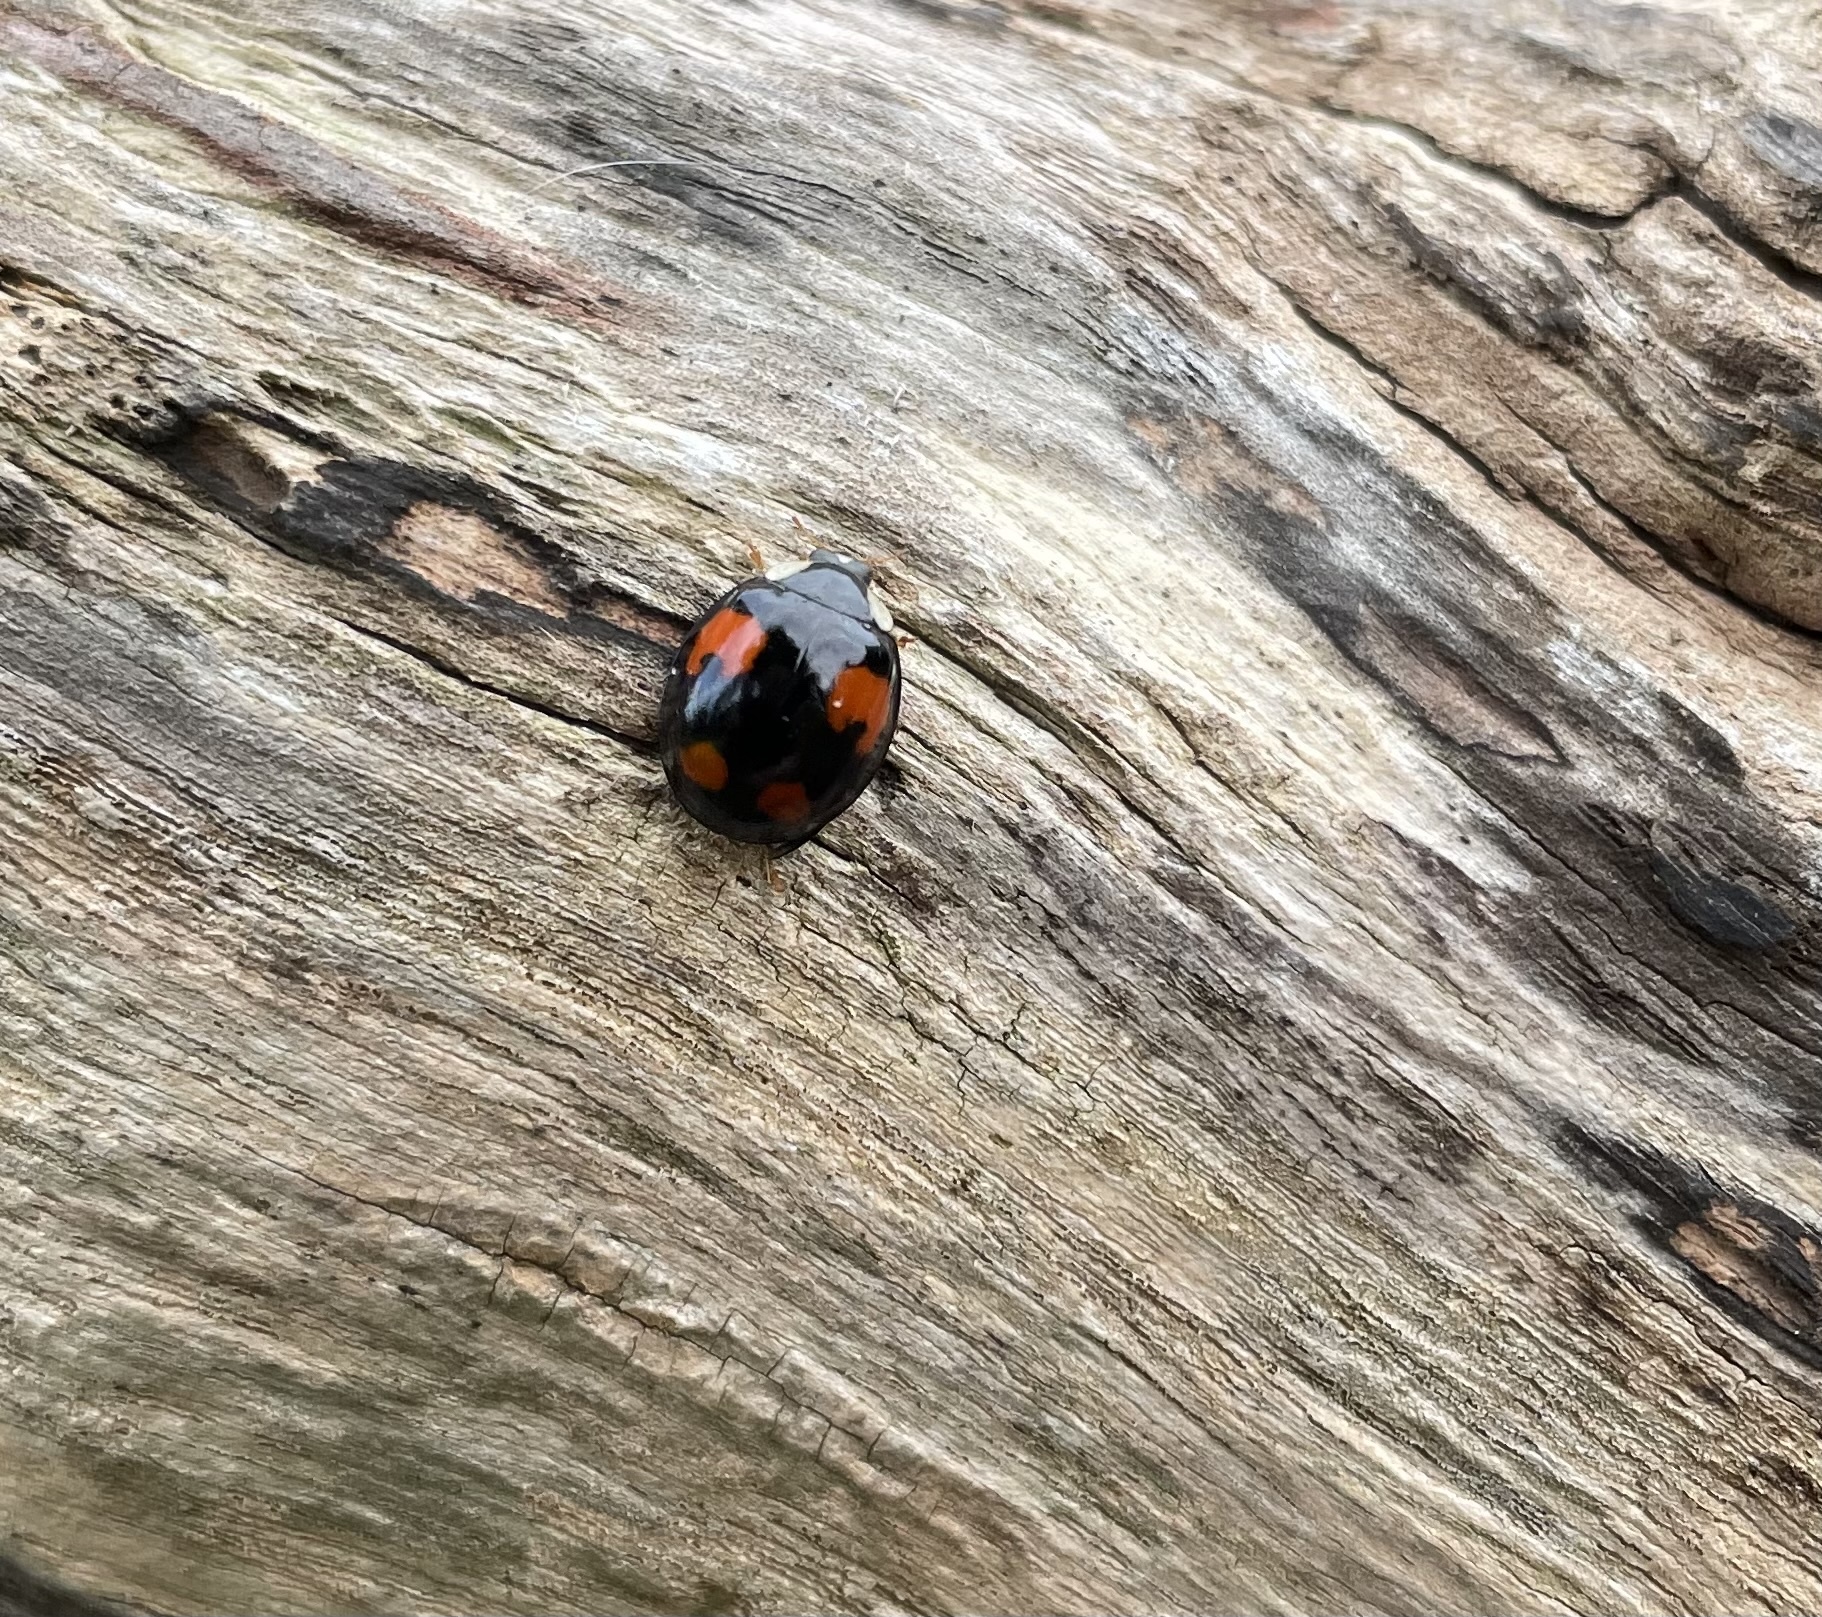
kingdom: Animalia
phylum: Arthropoda
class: Insecta
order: Coleoptera
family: Coccinellidae
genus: Harmonia
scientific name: Harmonia axyridis
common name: Harlequin ladybird
